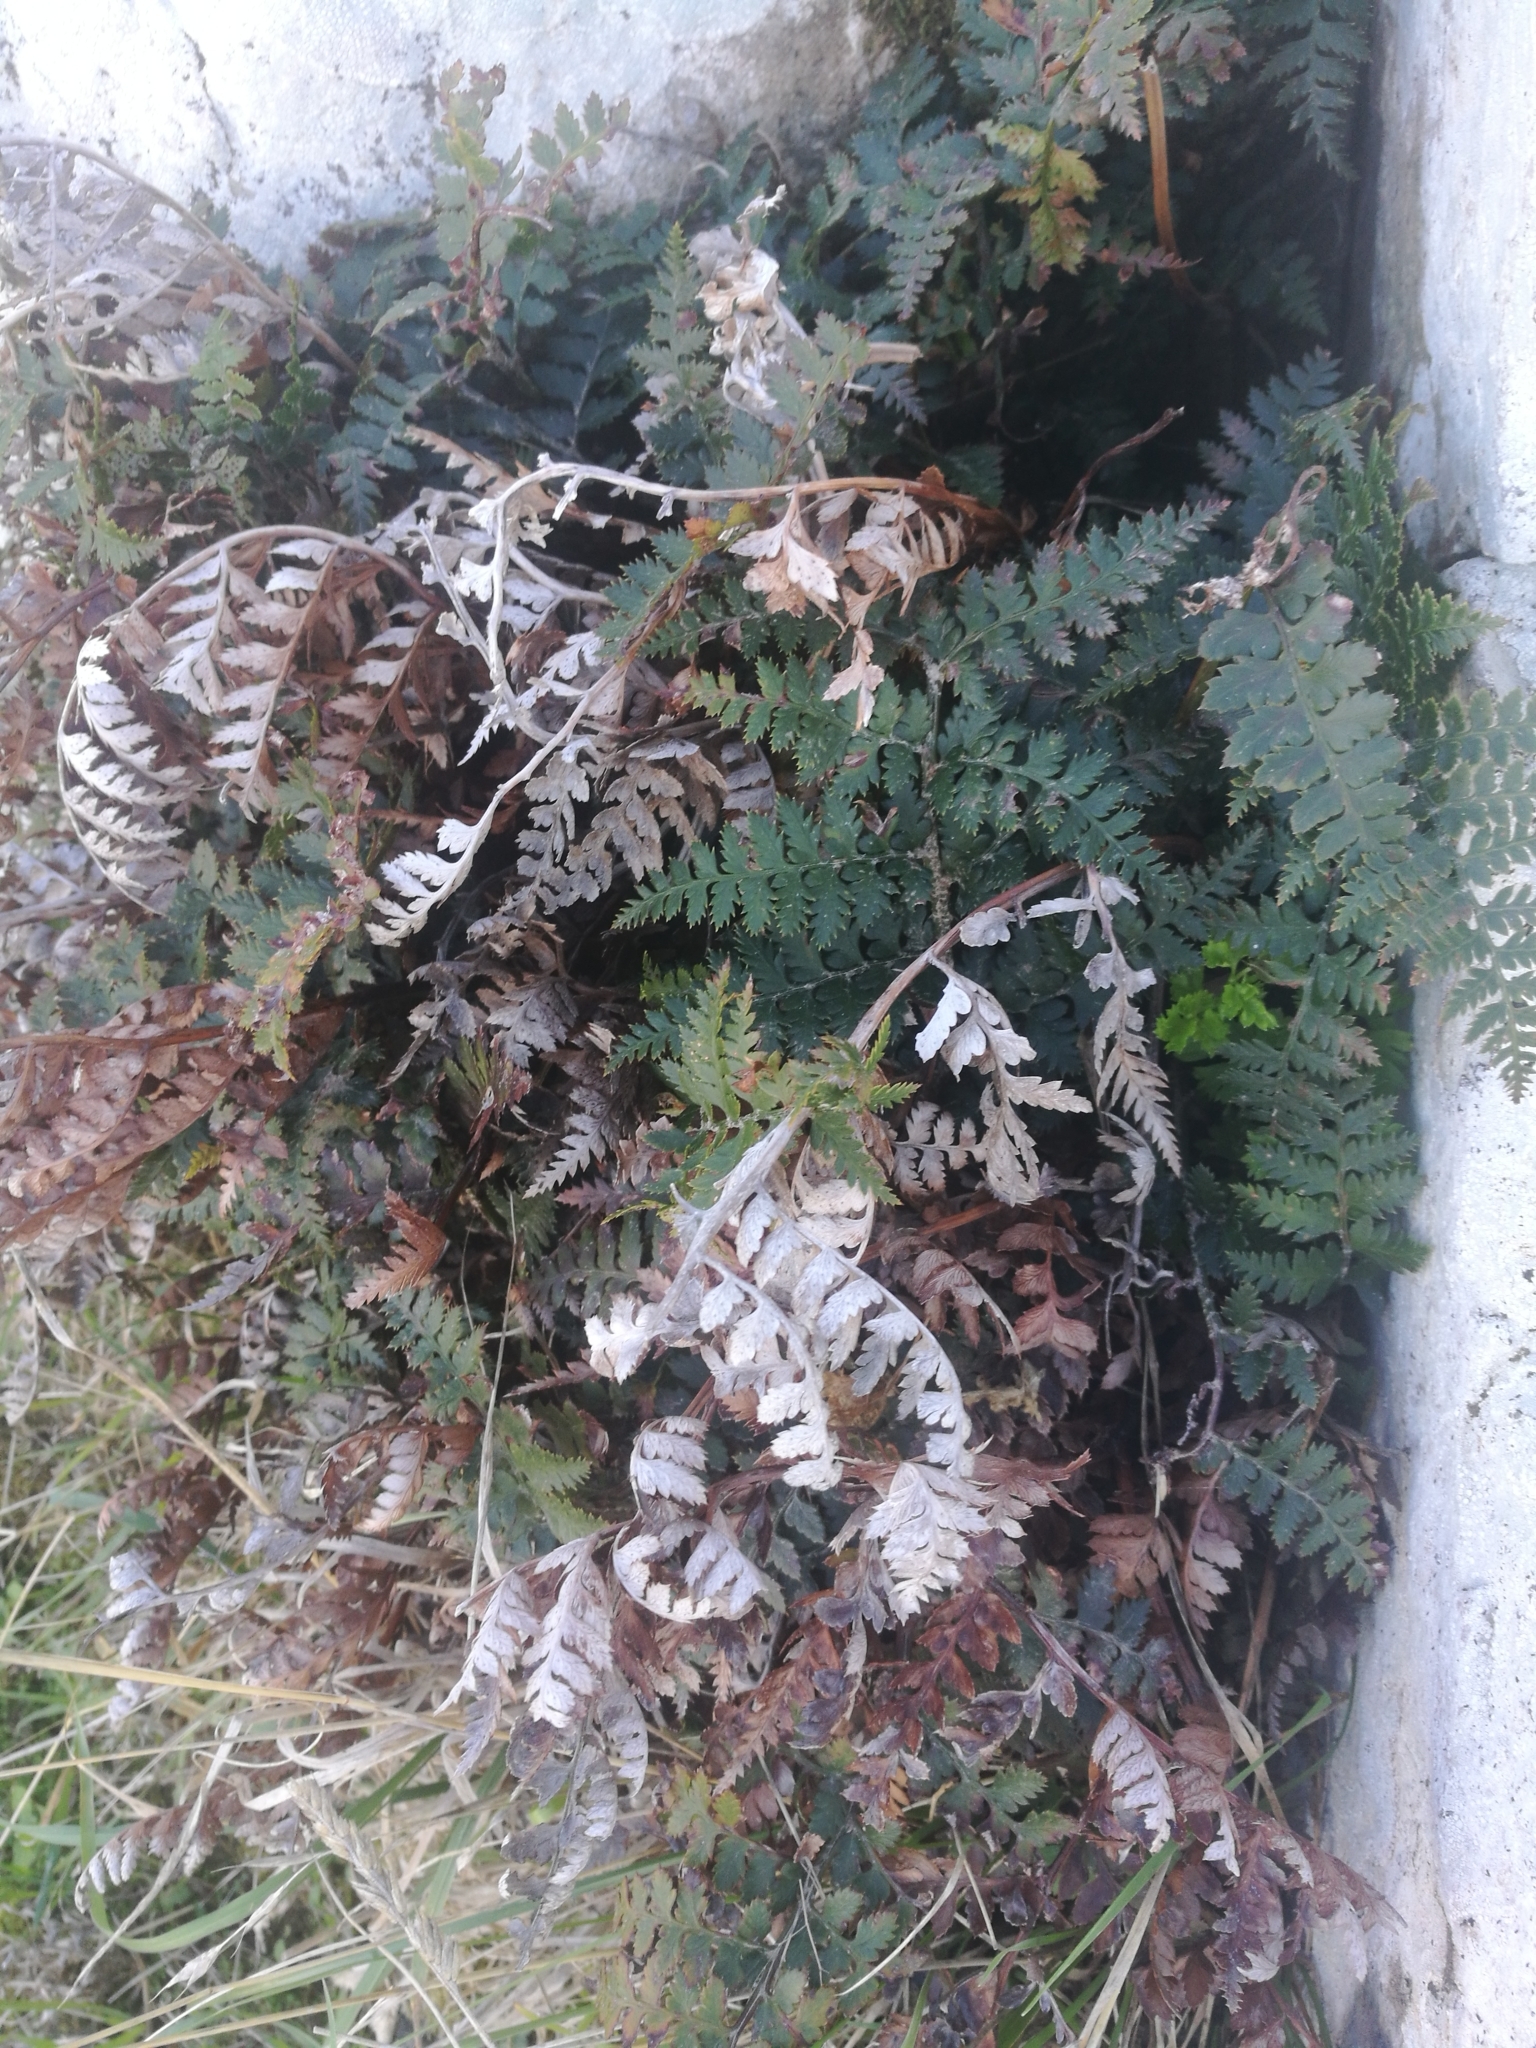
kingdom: Plantae
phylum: Tracheophyta
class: Polypodiopsida
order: Polypodiales
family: Dryopteridaceae
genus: Polystichum
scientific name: Polystichum oculatum
